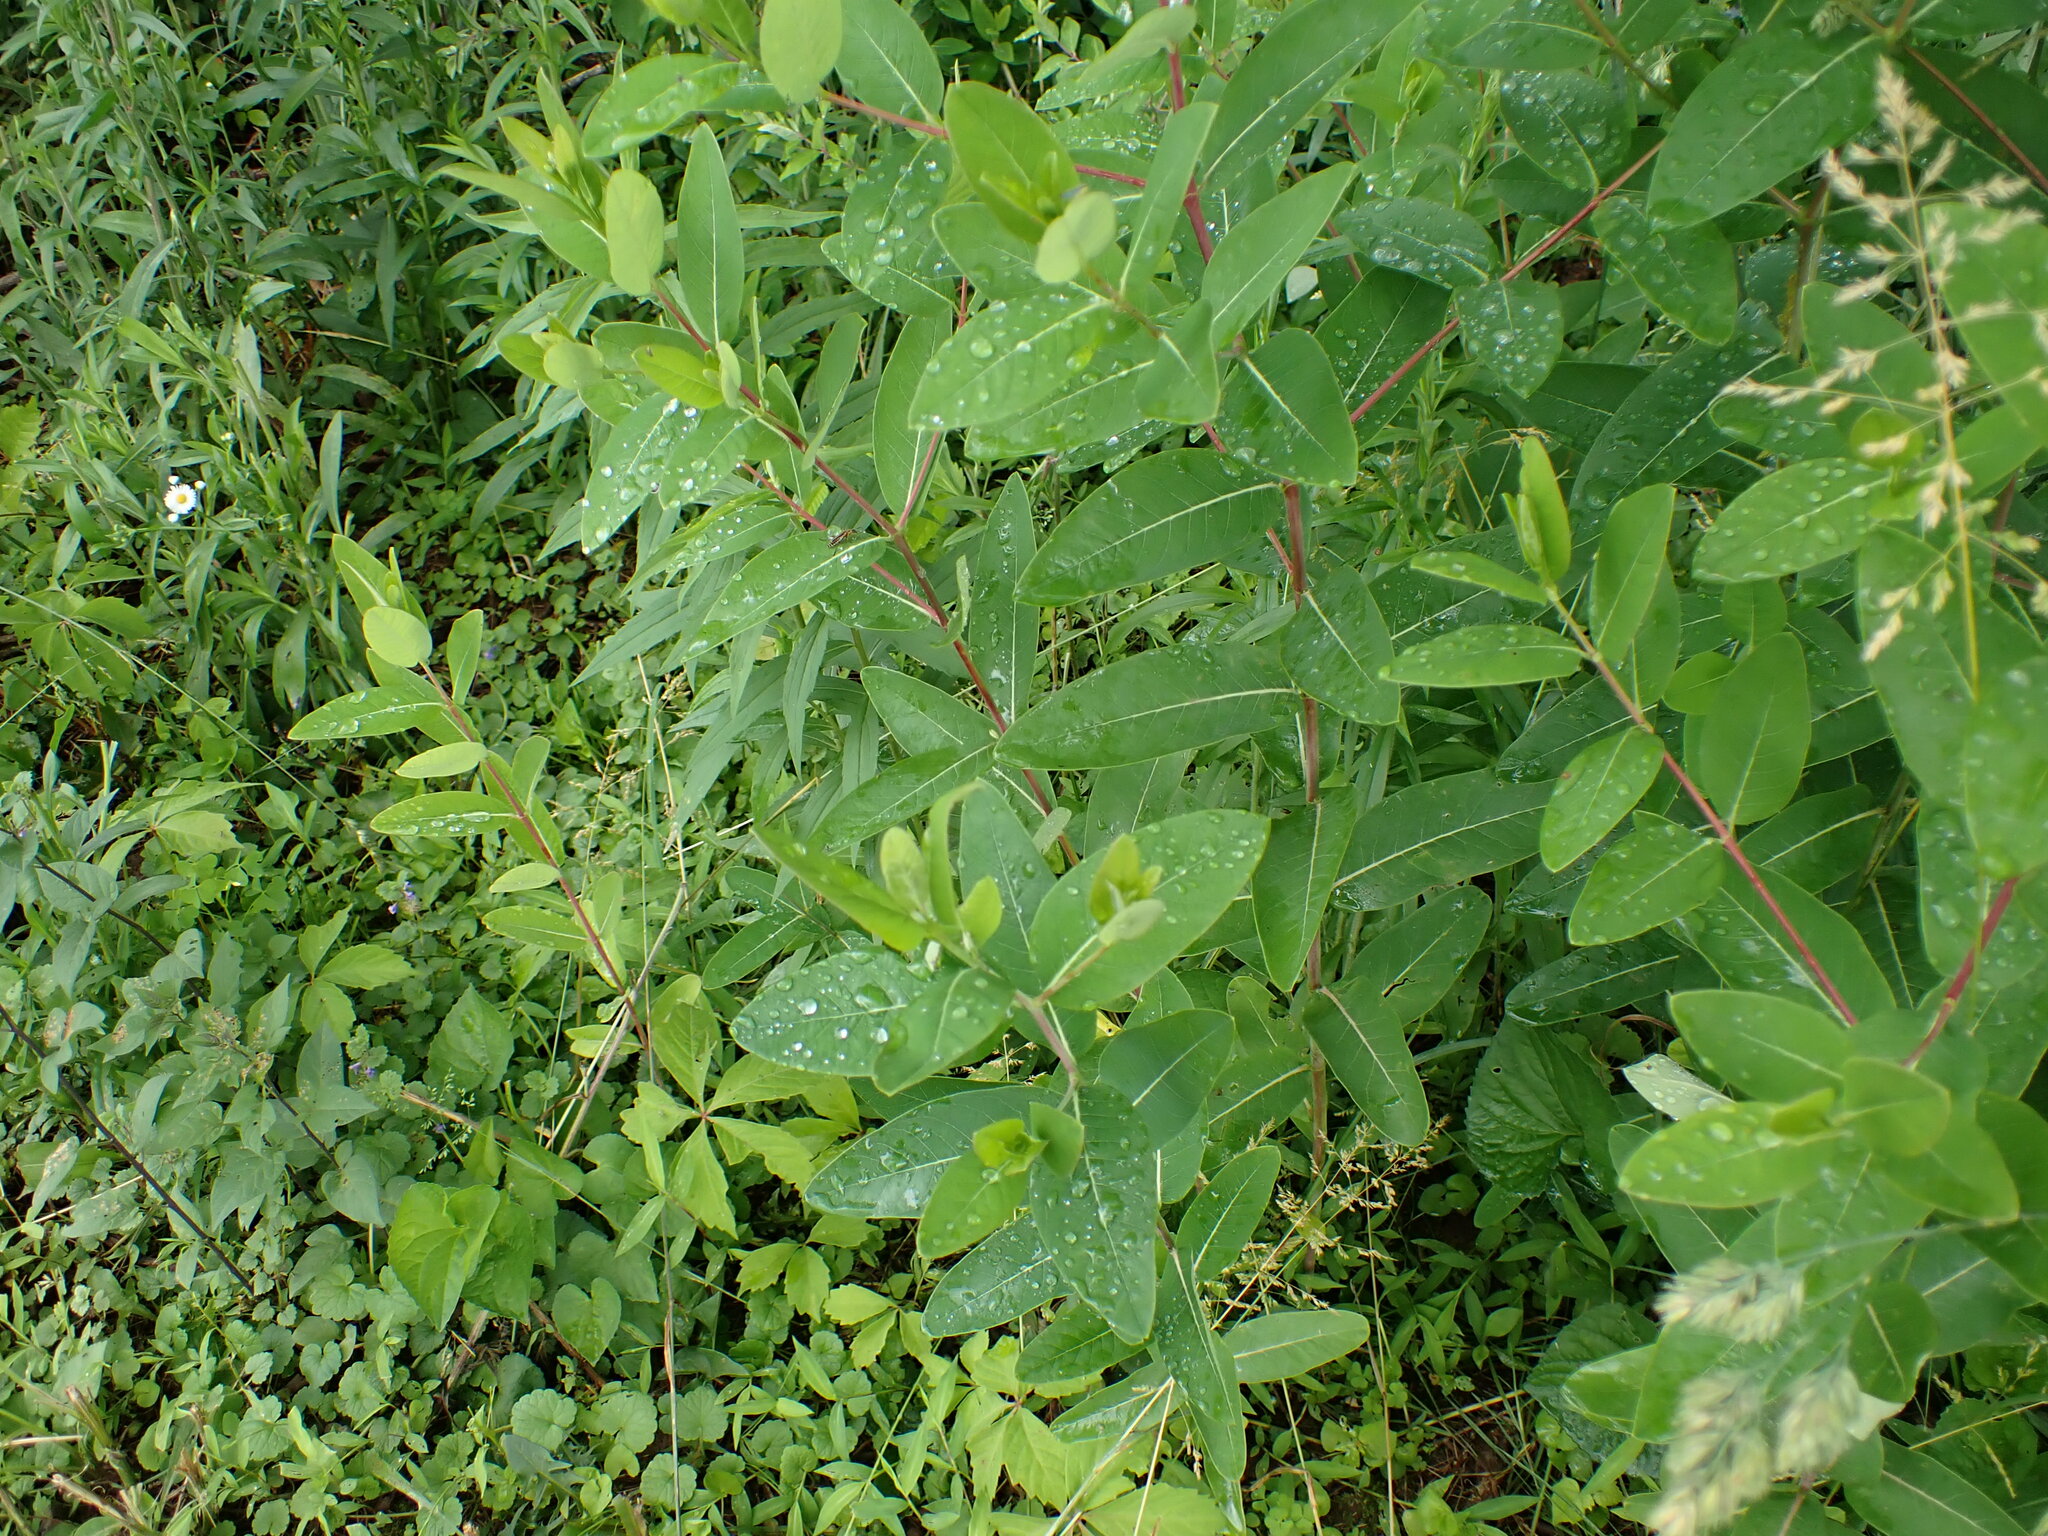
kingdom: Plantae
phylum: Tracheophyta
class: Magnoliopsida
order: Gentianales
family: Apocynaceae
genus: Apocynum
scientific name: Apocynum cannabinum
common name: Hemp dogbane
